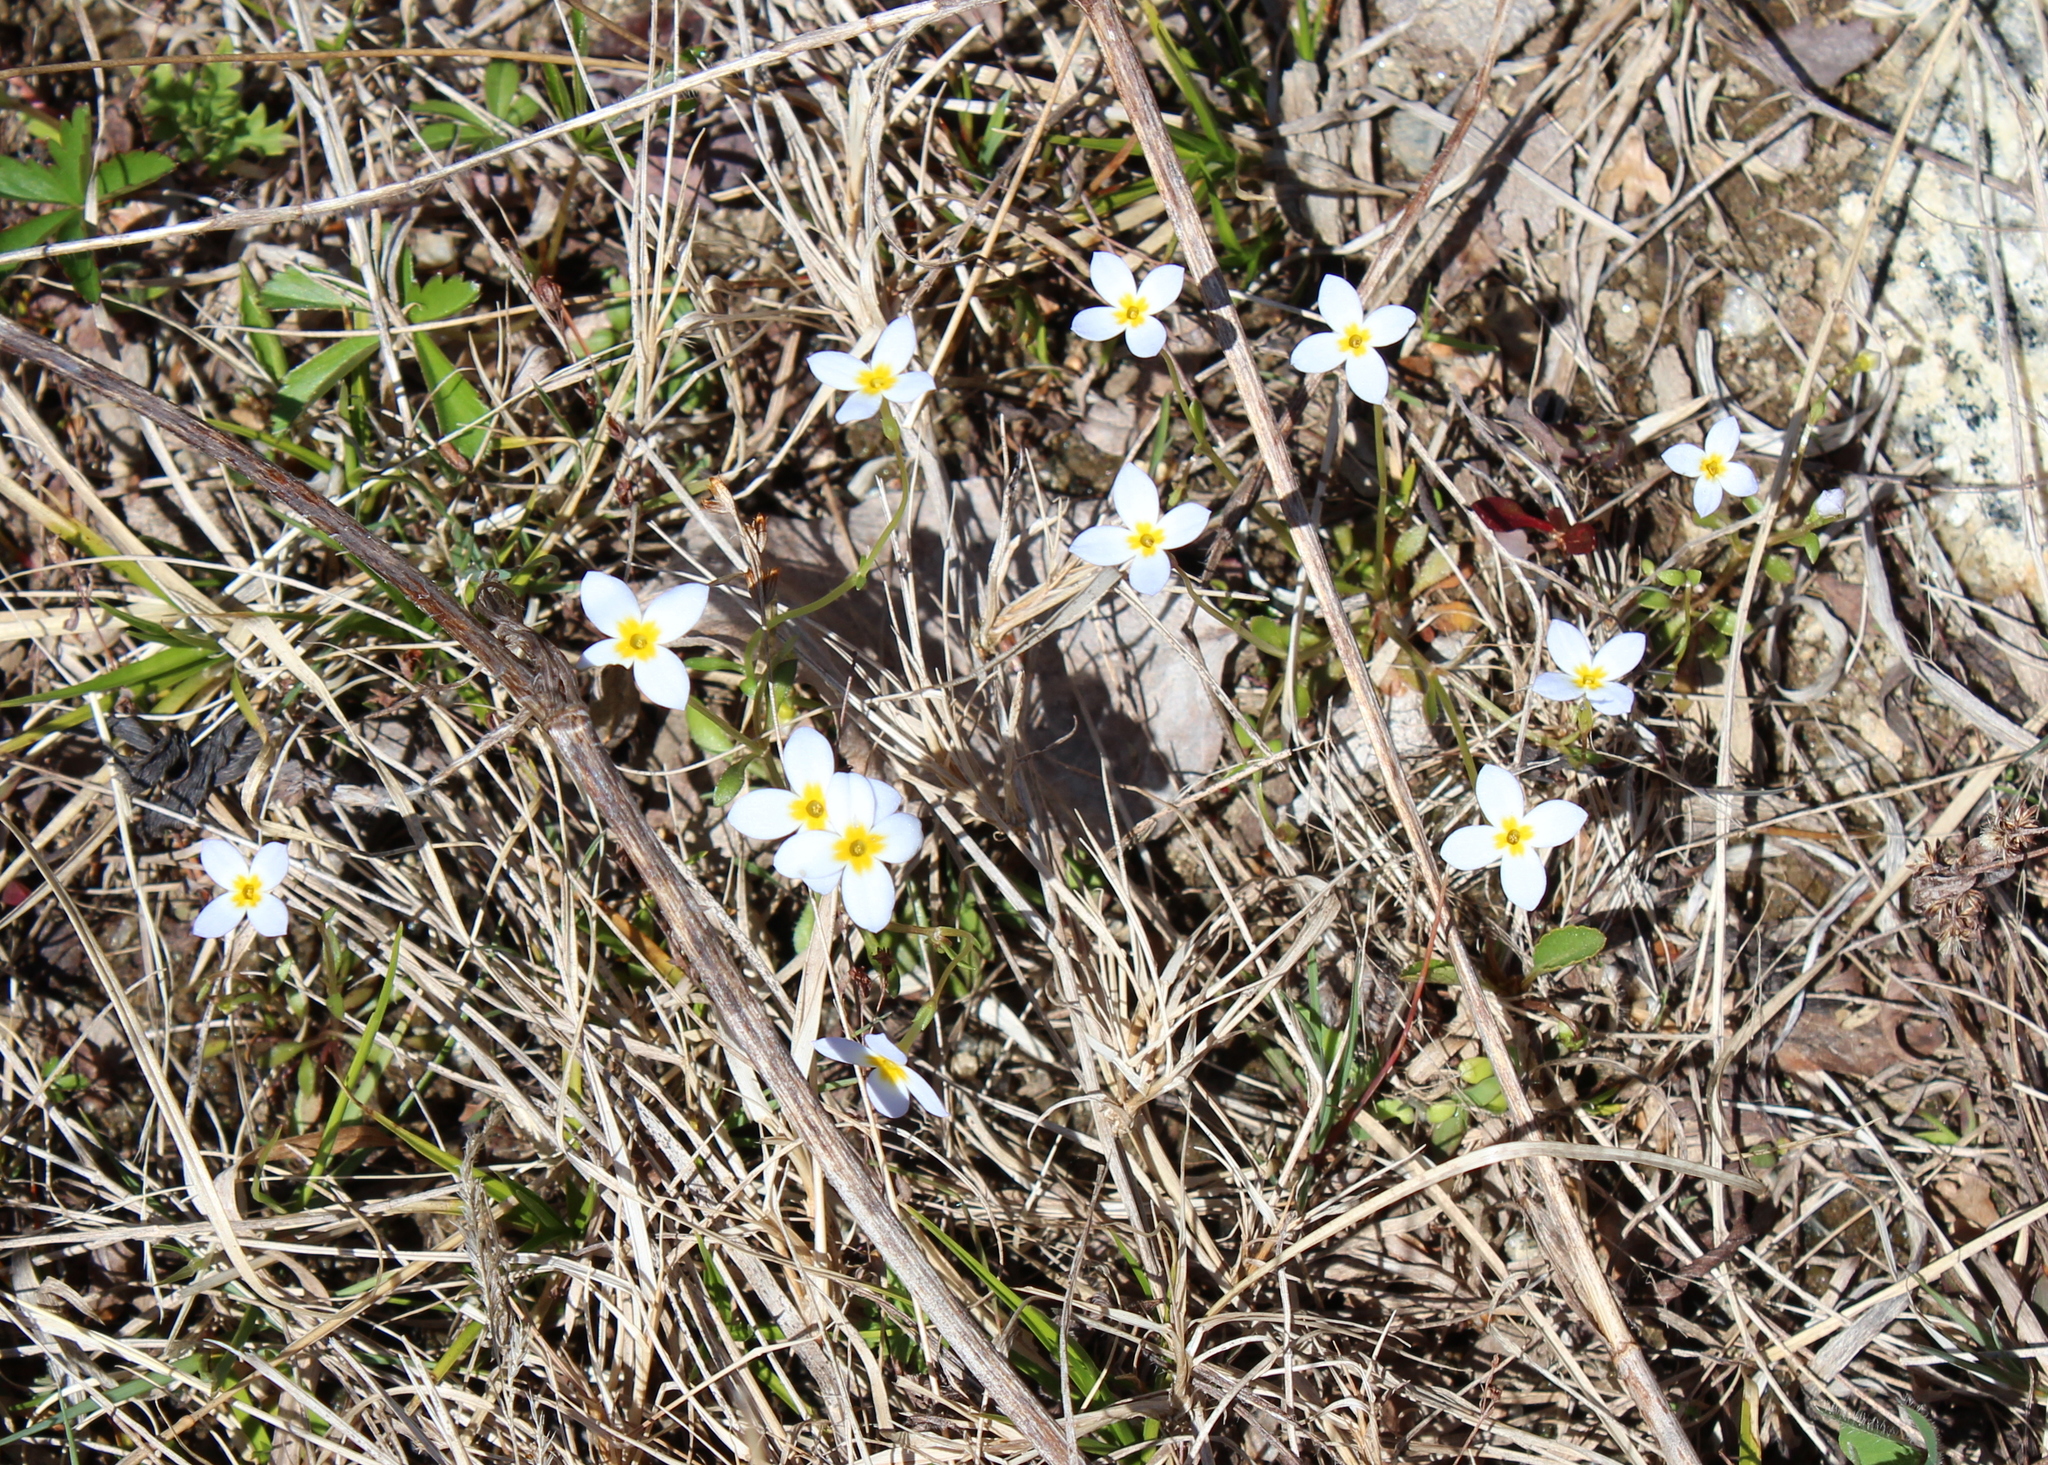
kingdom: Plantae
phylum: Tracheophyta
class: Magnoliopsida
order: Gentianales
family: Rubiaceae
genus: Houstonia
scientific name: Houstonia caerulea
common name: Bluets
